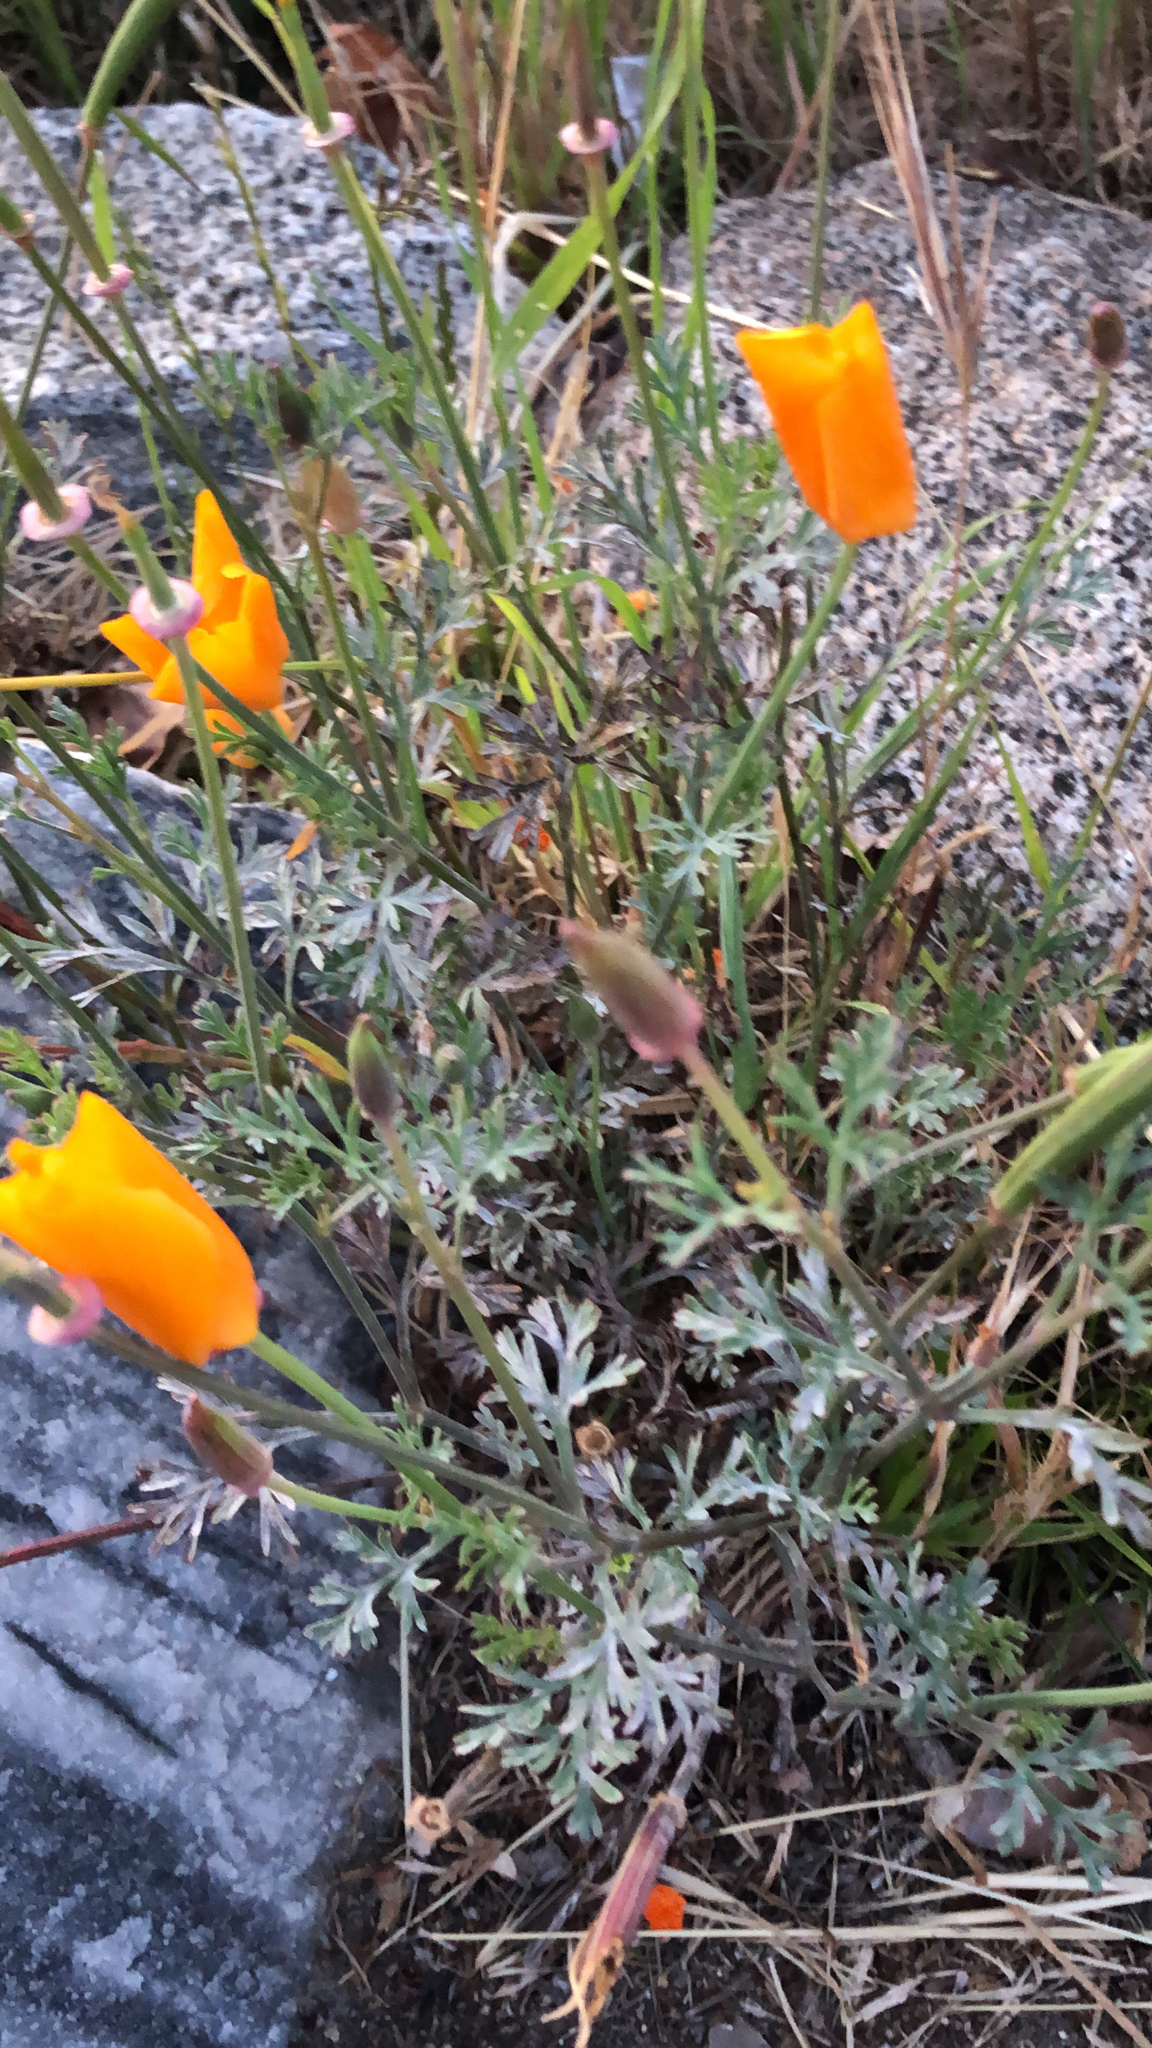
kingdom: Plantae
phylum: Tracheophyta
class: Magnoliopsida
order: Ranunculales
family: Papaveraceae
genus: Eschscholzia
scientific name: Eschscholzia californica
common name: California poppy
